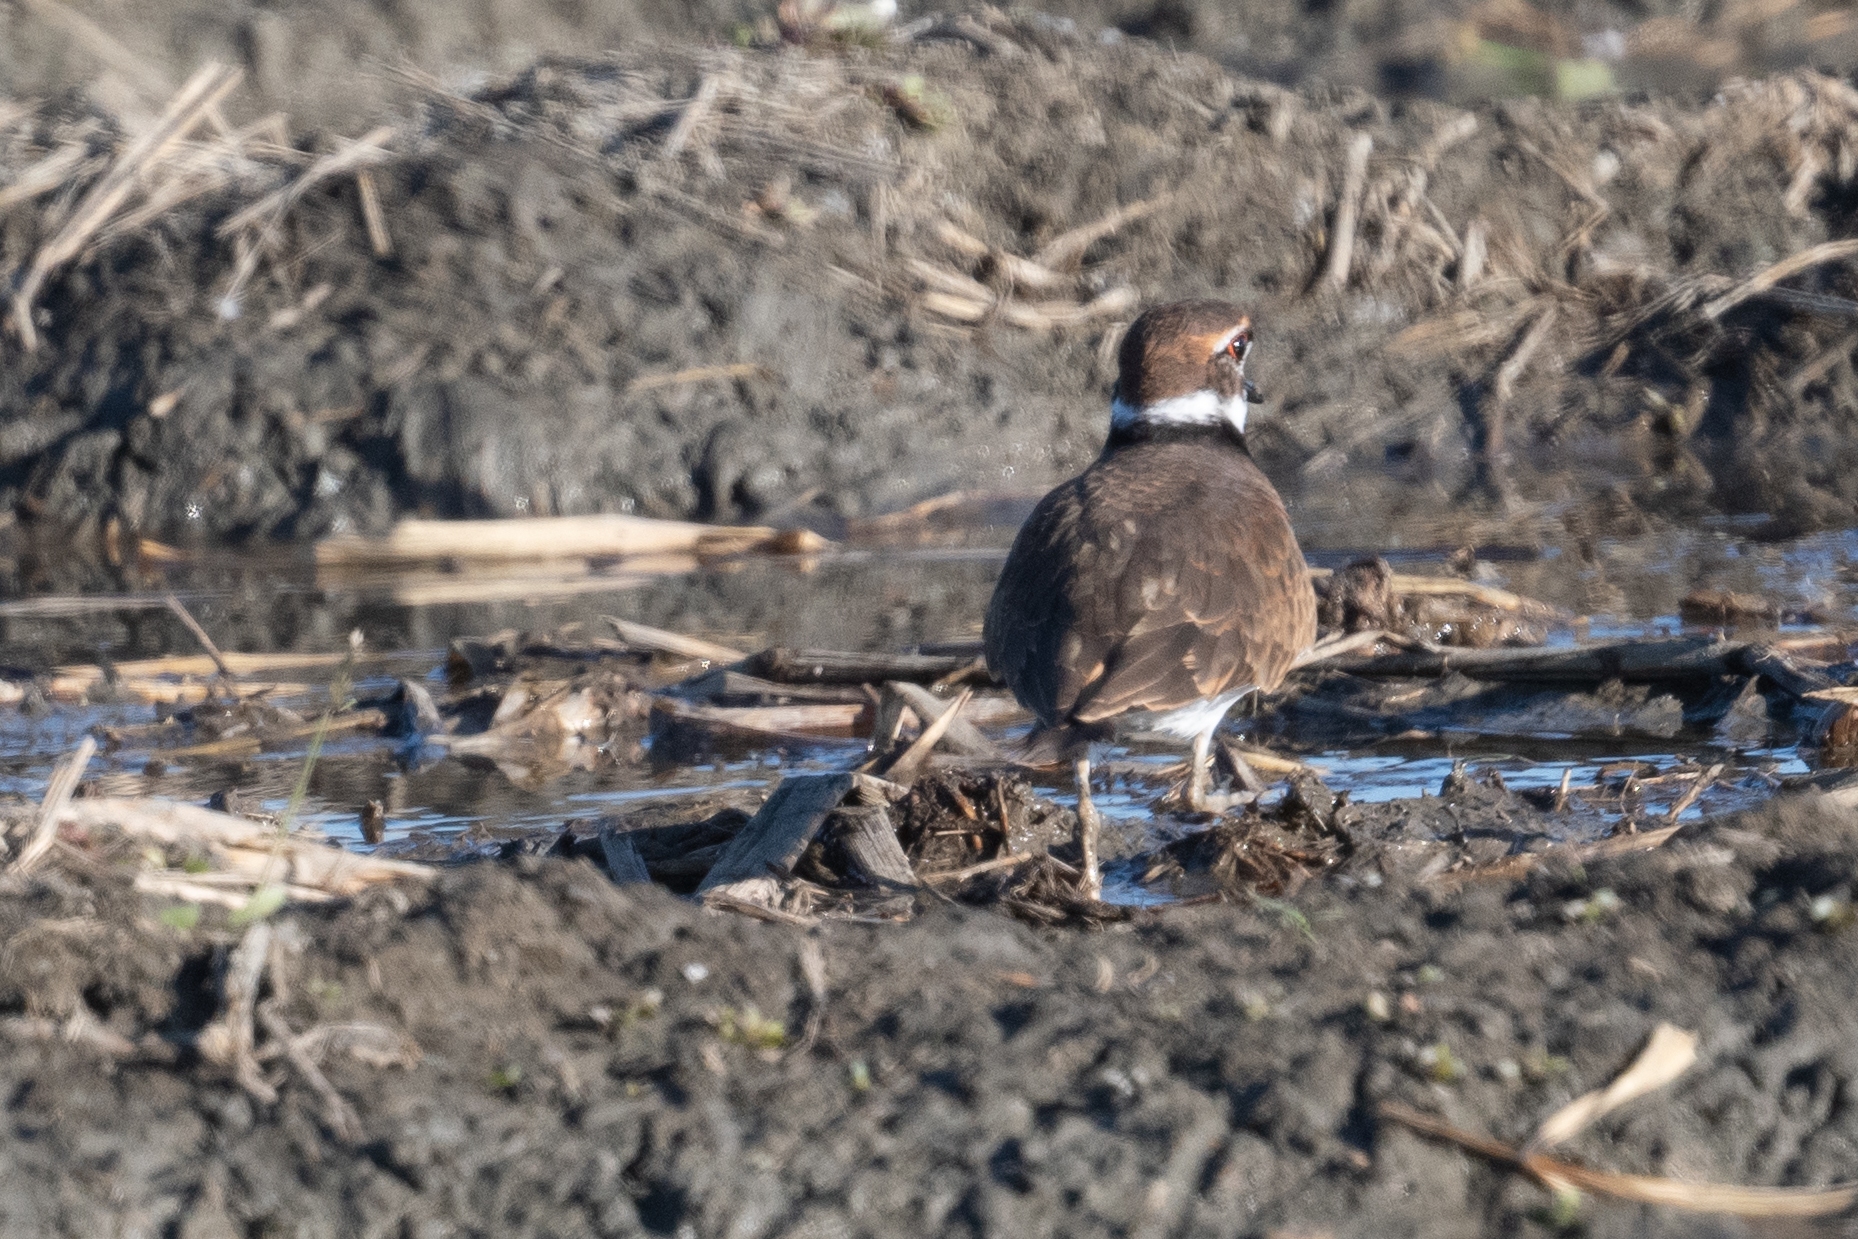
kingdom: Animalia
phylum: Chordata
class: Aves
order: Charadriiformes
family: Charadriidae
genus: Charadrius
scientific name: Charadrius vociferus
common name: Killdeer
